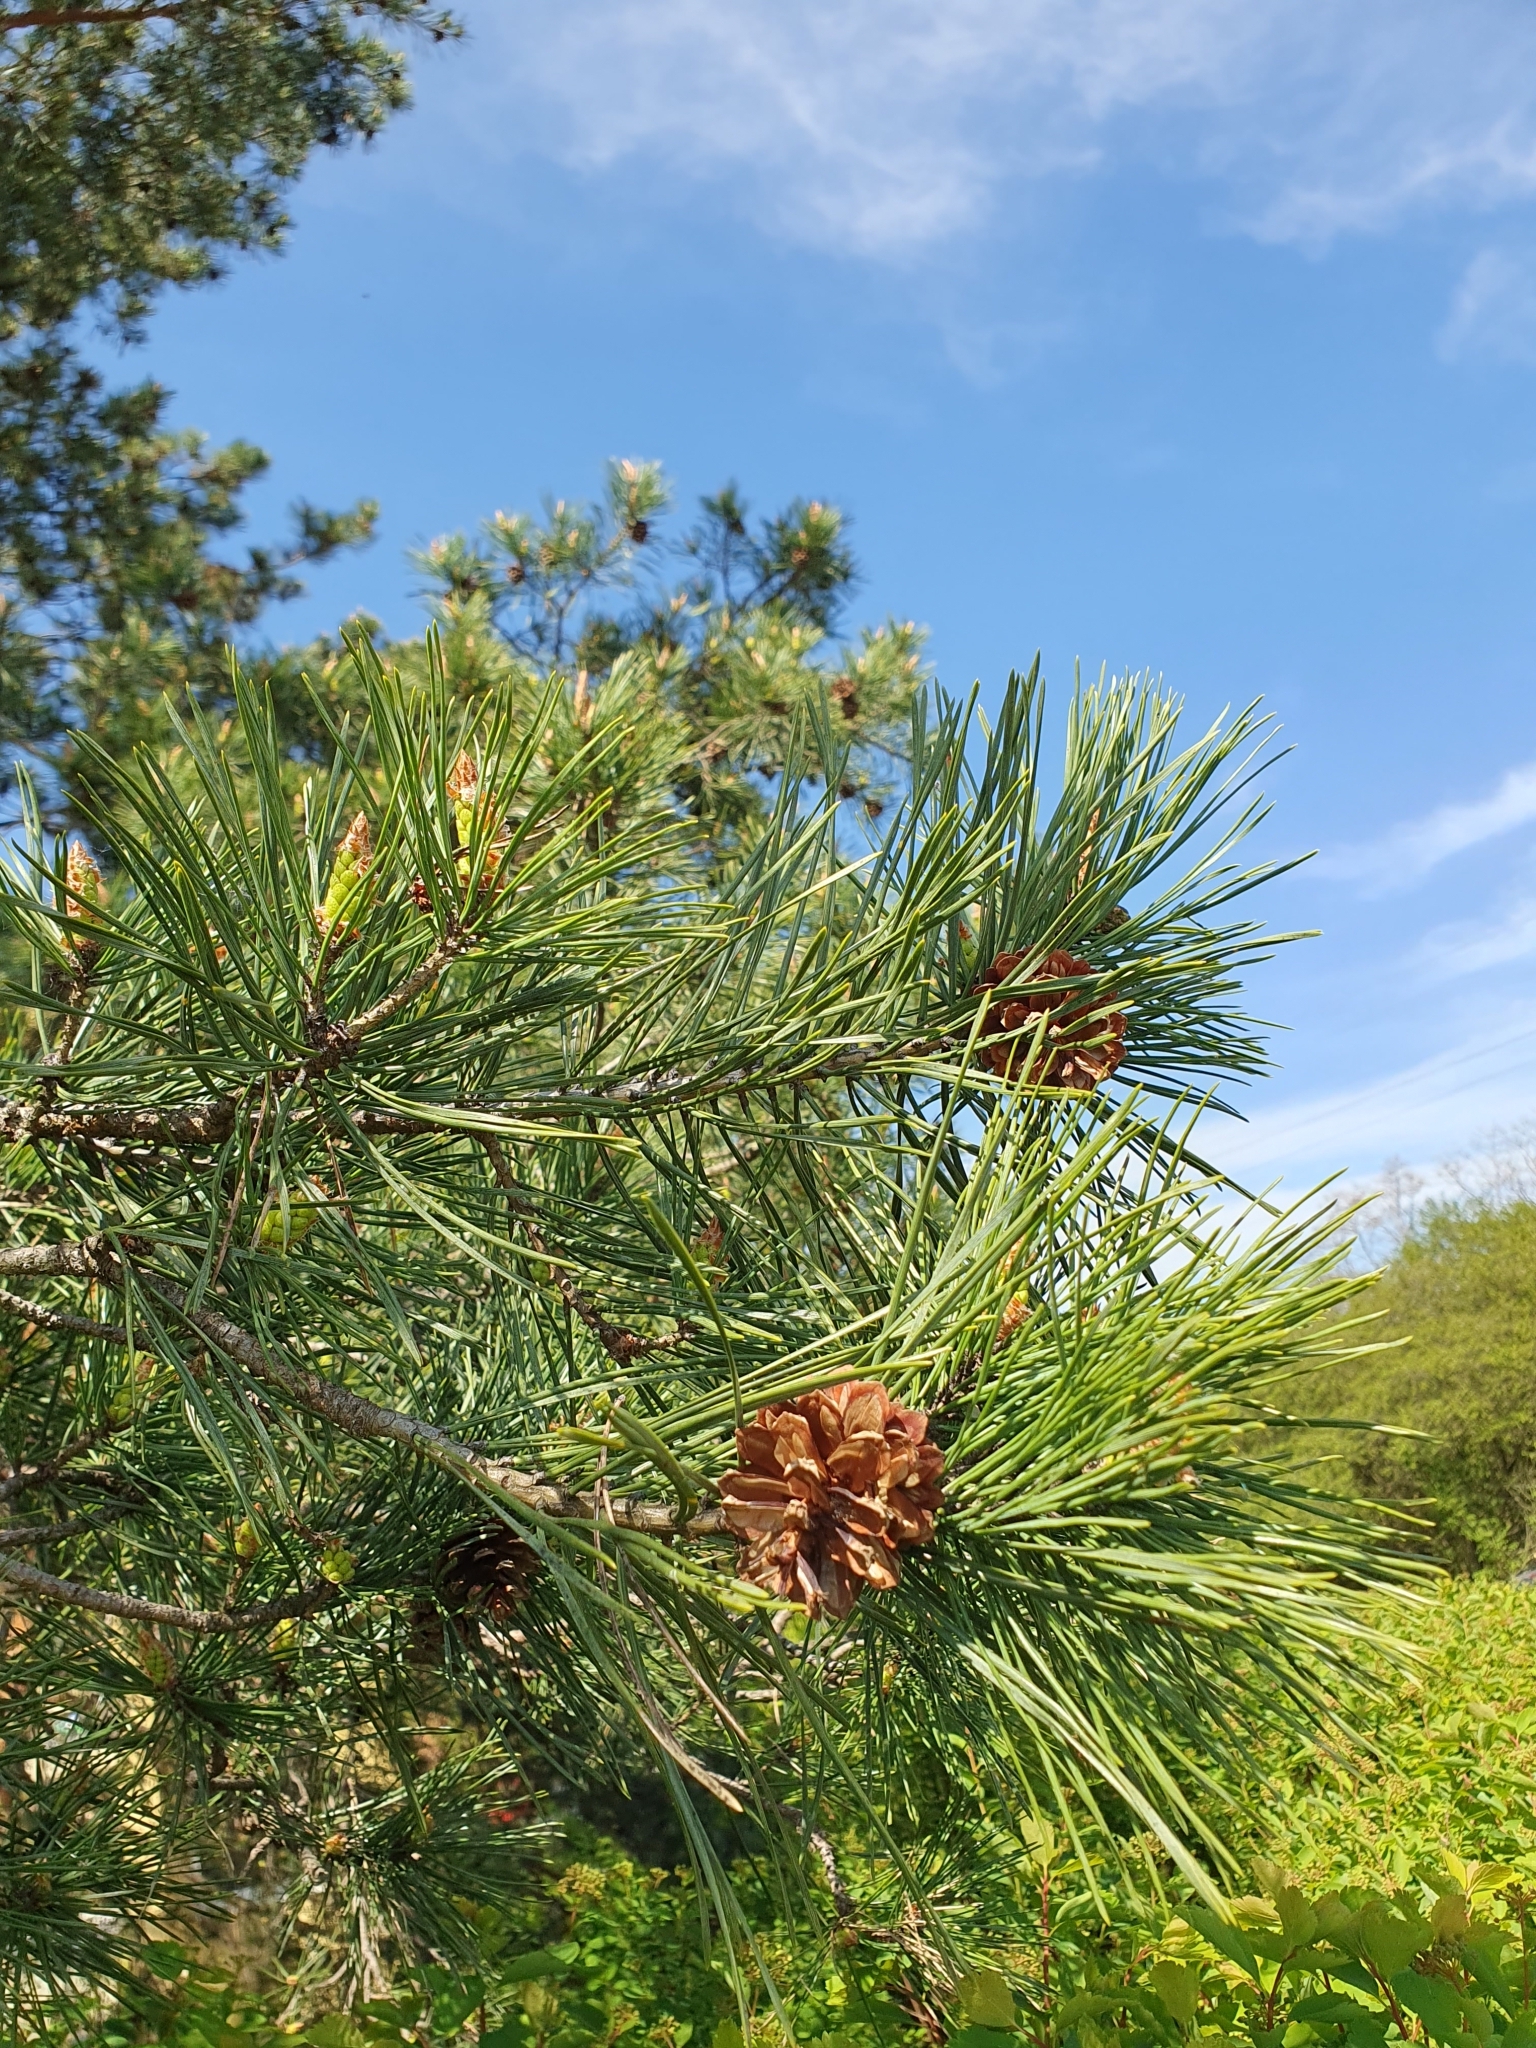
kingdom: Plantae
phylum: Tracheophyta
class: Pinopsida
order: Pinales
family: Pinaceae
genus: Pinus
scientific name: Pinus sylvestris
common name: Scots pine
